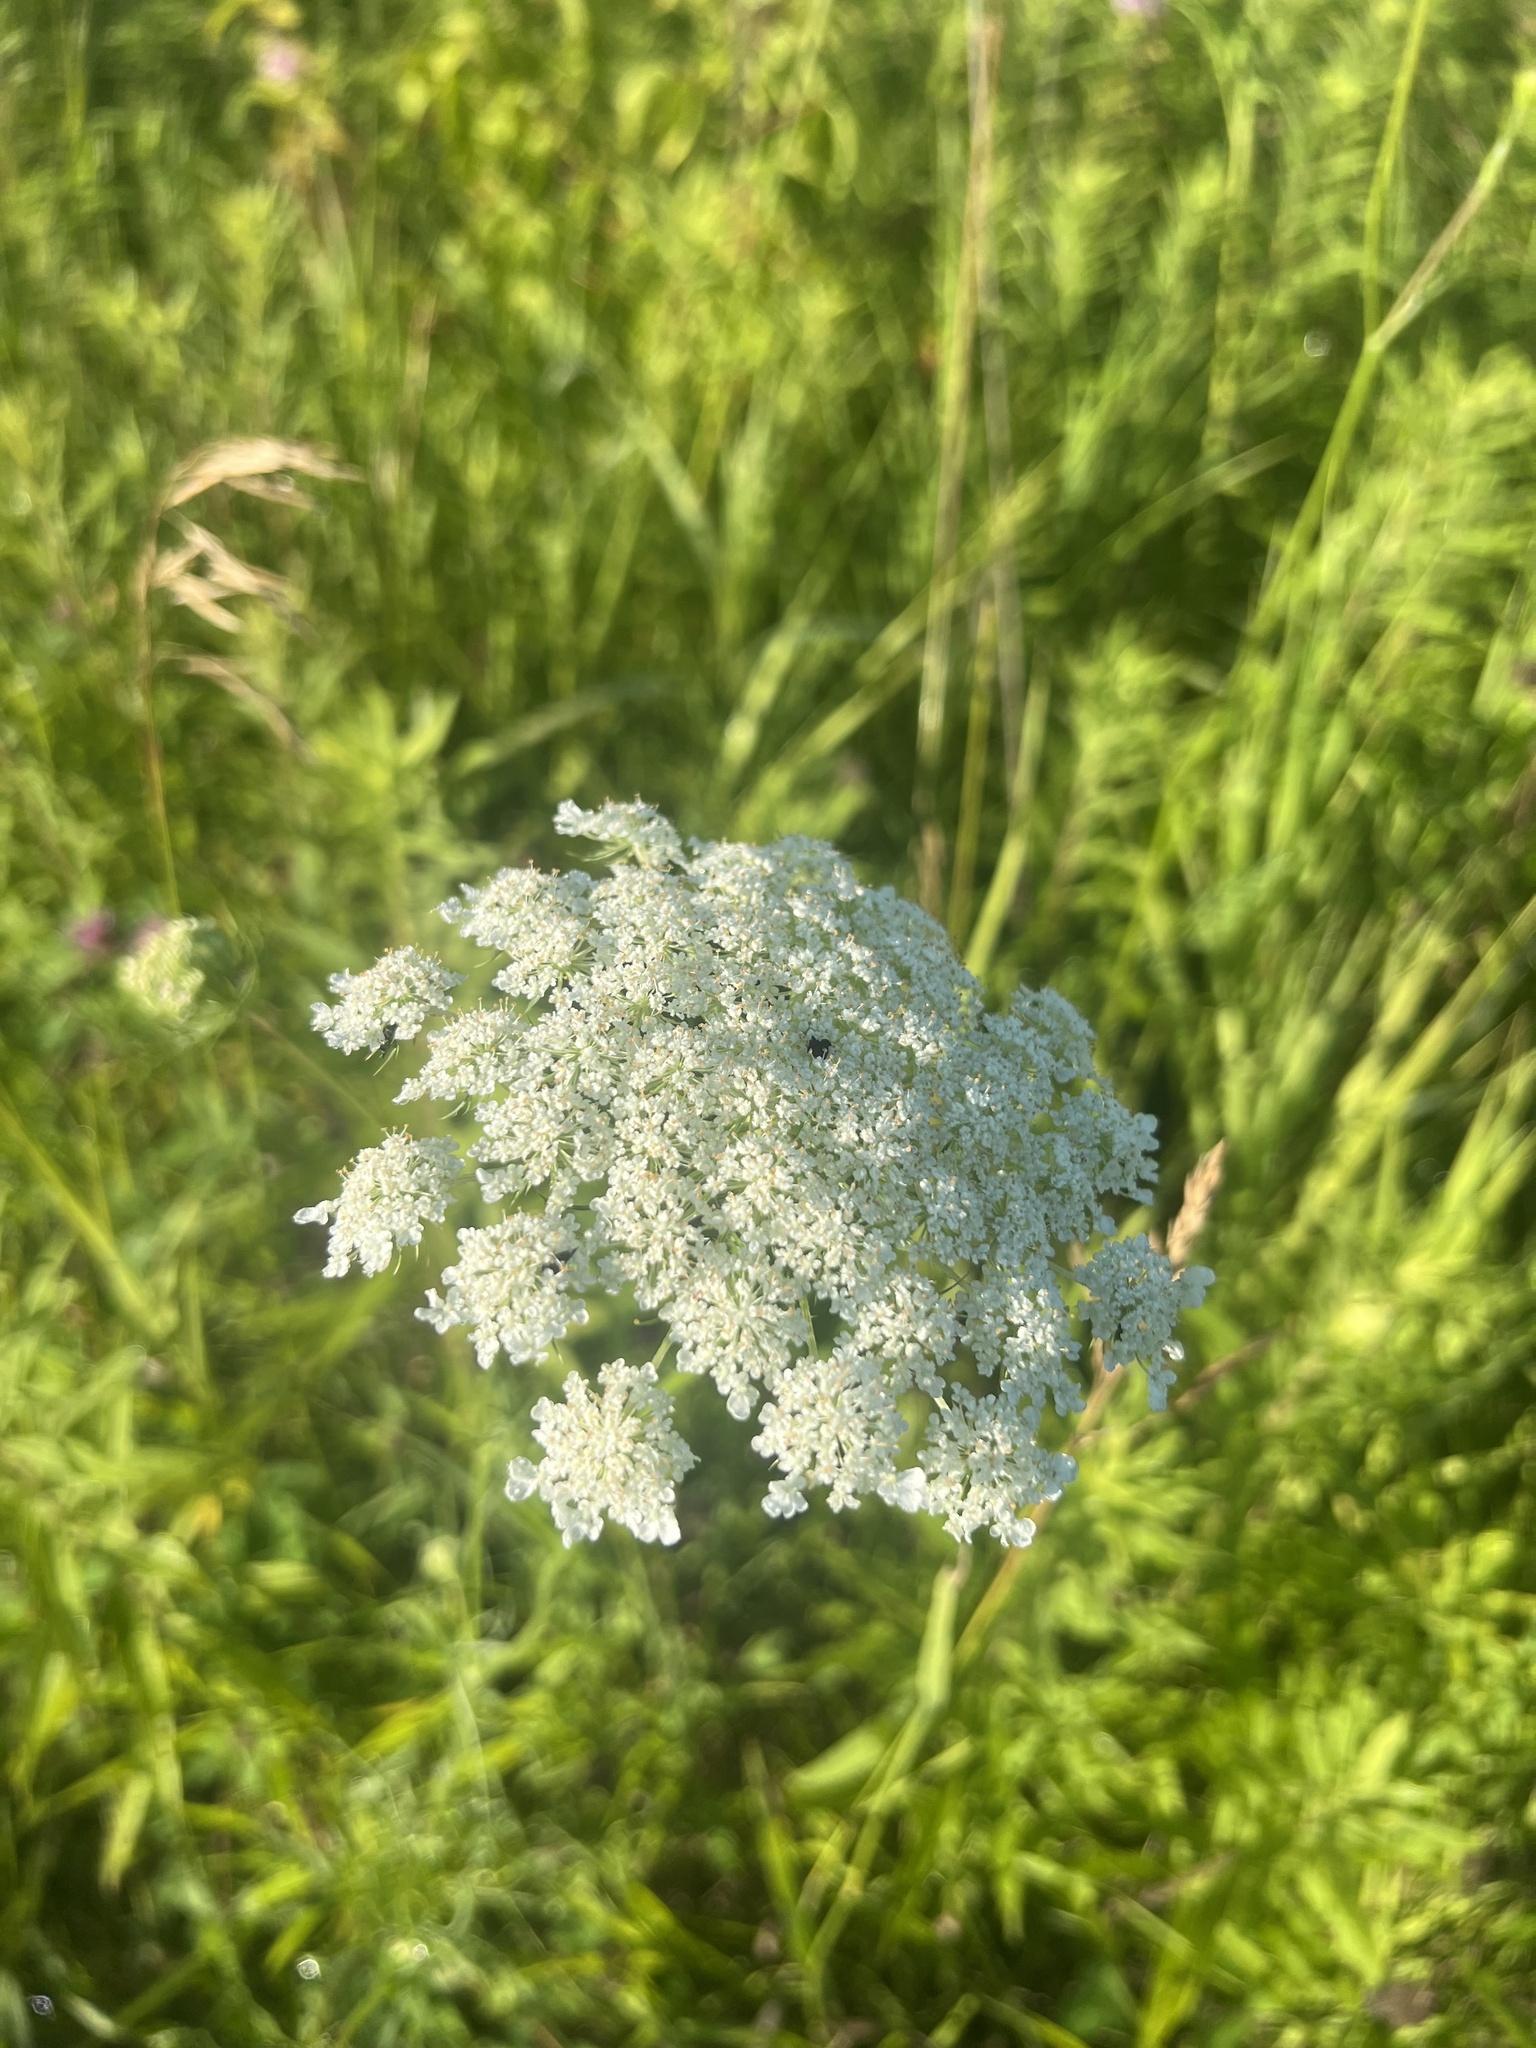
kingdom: Plantae
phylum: Tracheophyta
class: Magnoliopsida
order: Apiales
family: Apiaceae
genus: Daucus
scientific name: Daucus carota
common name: Wild carrot
